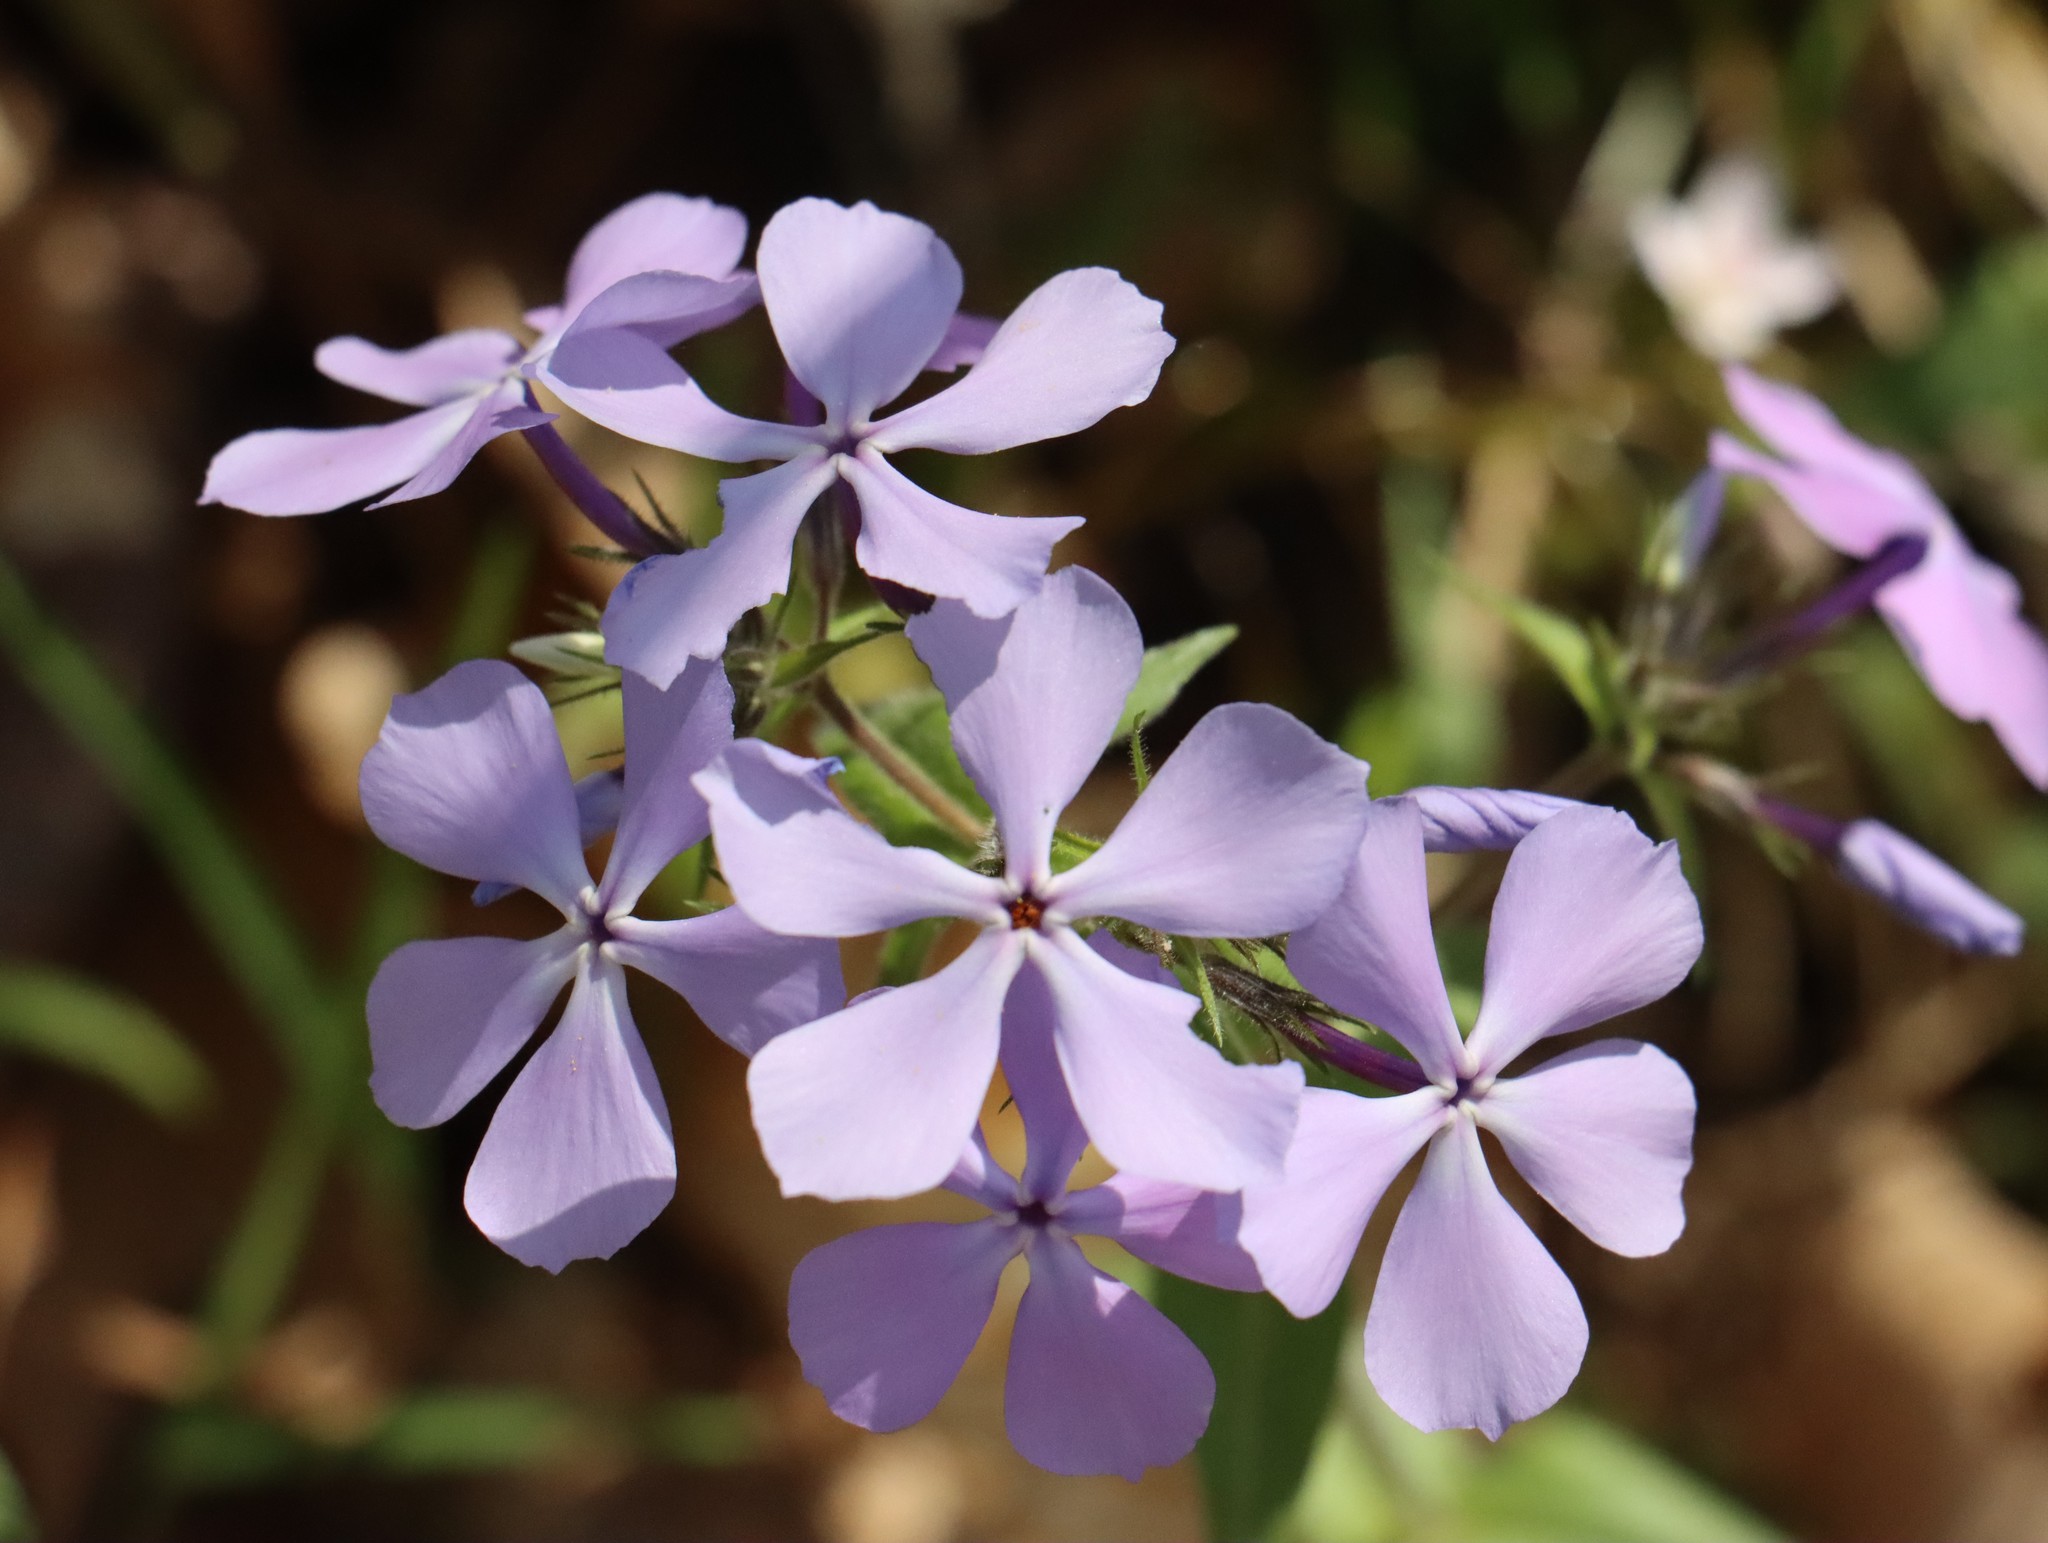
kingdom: Plantae
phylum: Tracheophyta
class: Magnoliopsida
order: Ericales
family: Polemoniaceae
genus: Phlox
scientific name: Phlox divaricata
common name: Blue phlox
